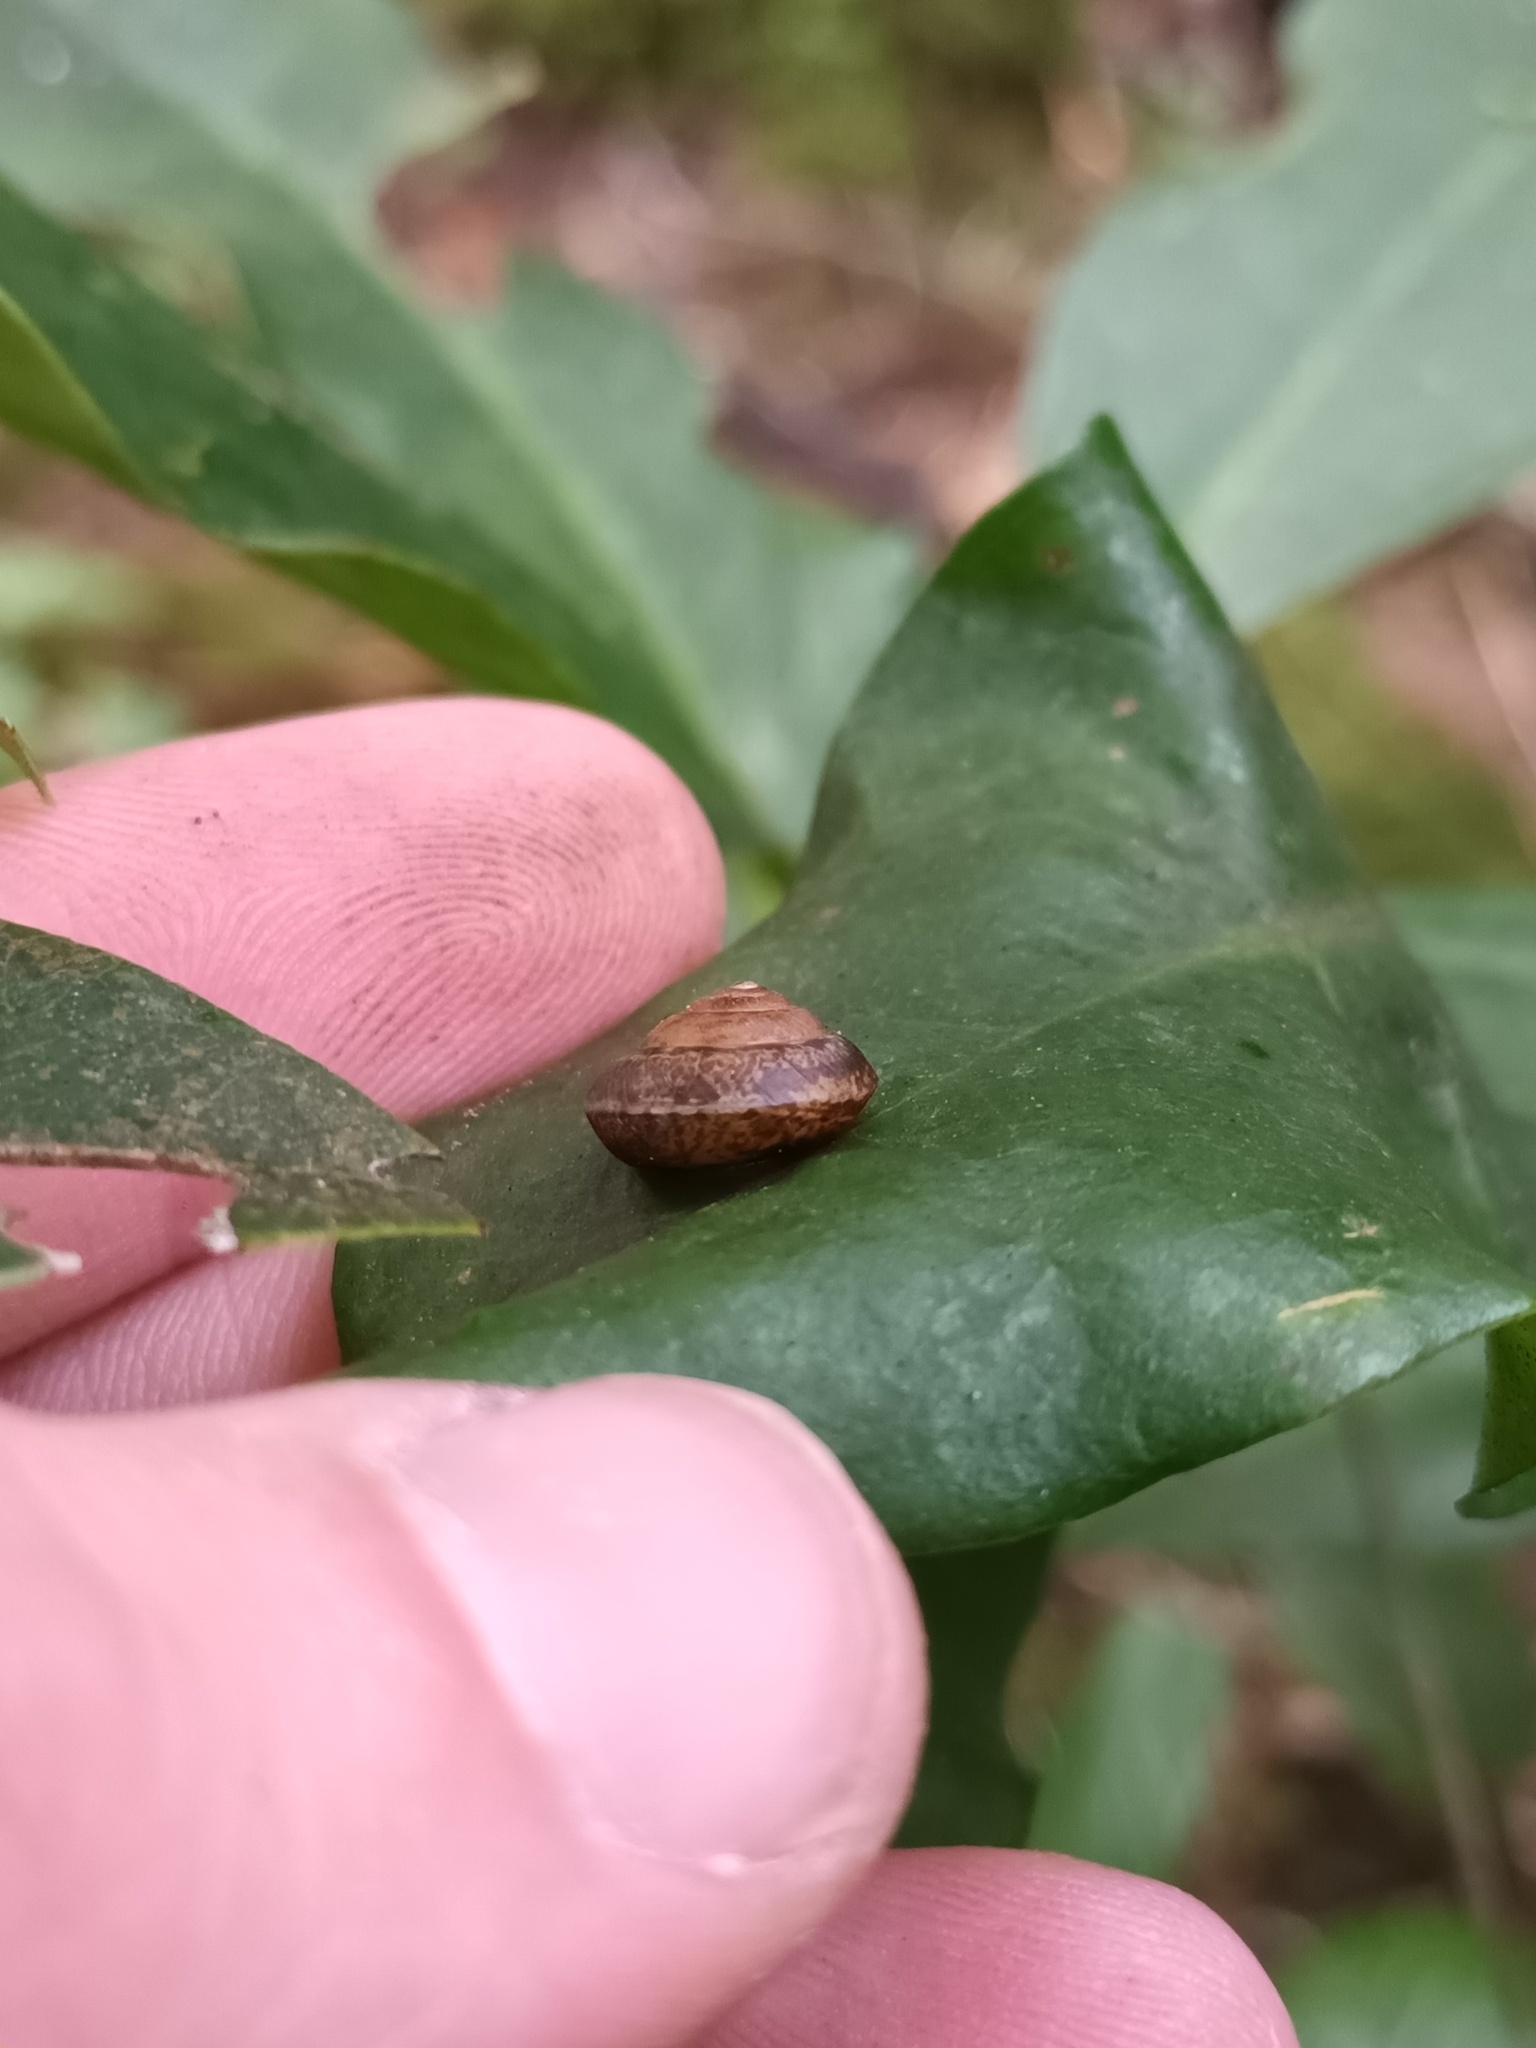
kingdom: Animalia
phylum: Mollusca
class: Gastropoda
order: Stylommatophora
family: Hygromiidae
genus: Hygromia
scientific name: Hygromia cinctella
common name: Girdled snail
